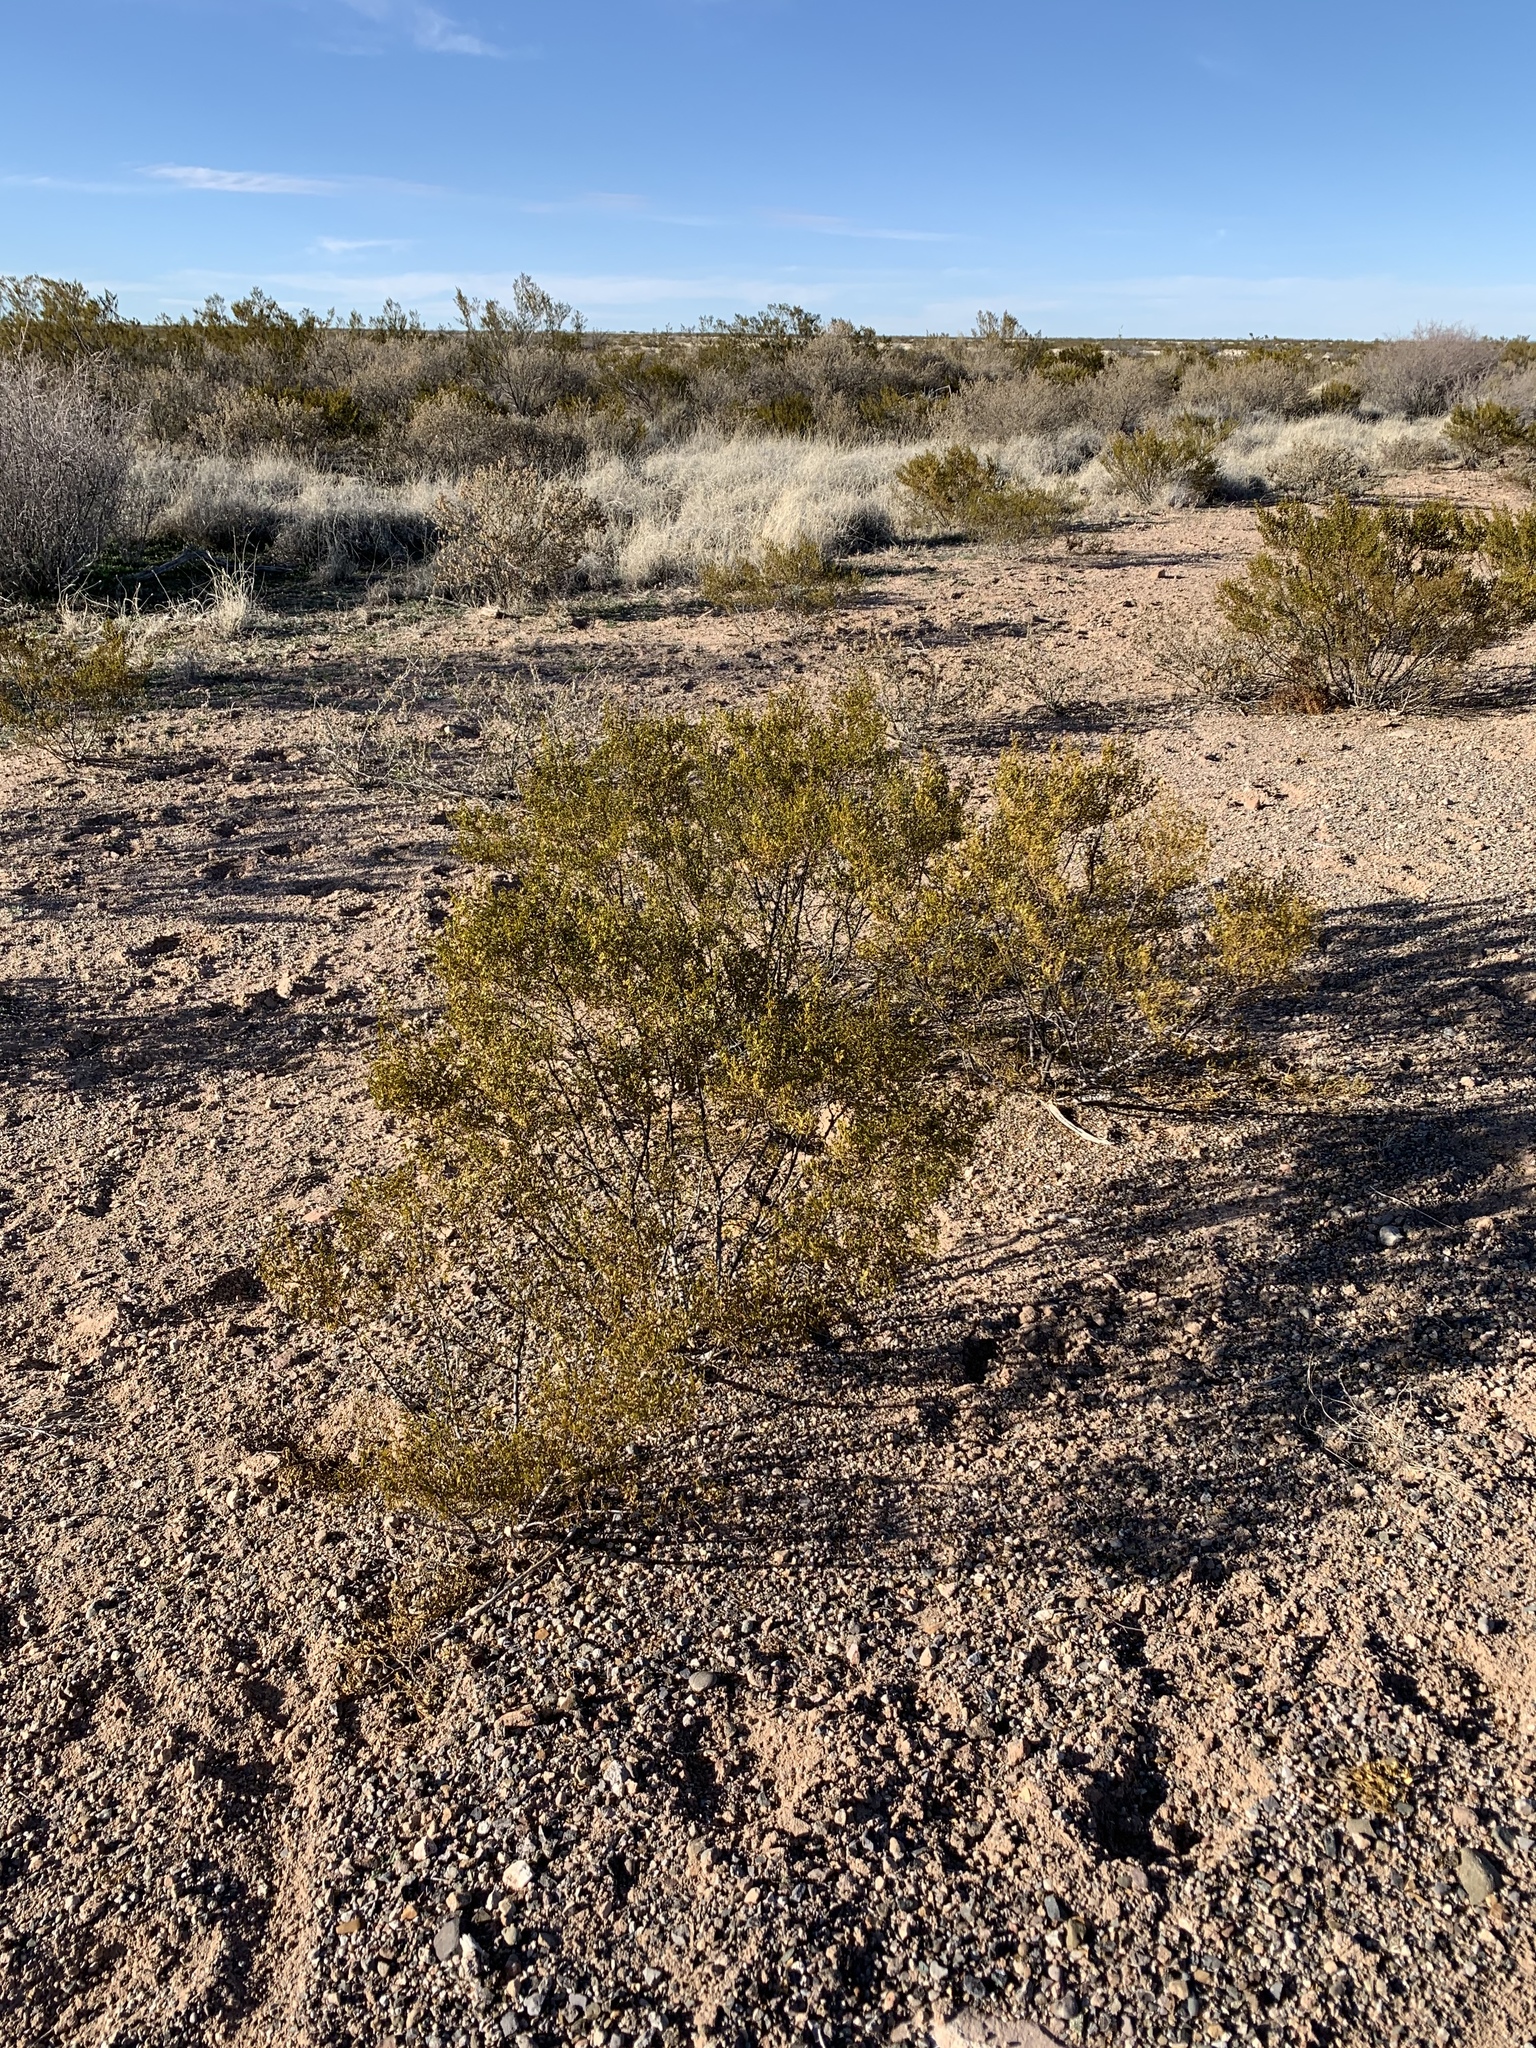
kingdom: Plantae
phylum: Tracheophyta
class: Magnoliopsida
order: Zygophyllales
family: Zygophyllaceae
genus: Larrea
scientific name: Larrea tridentata
